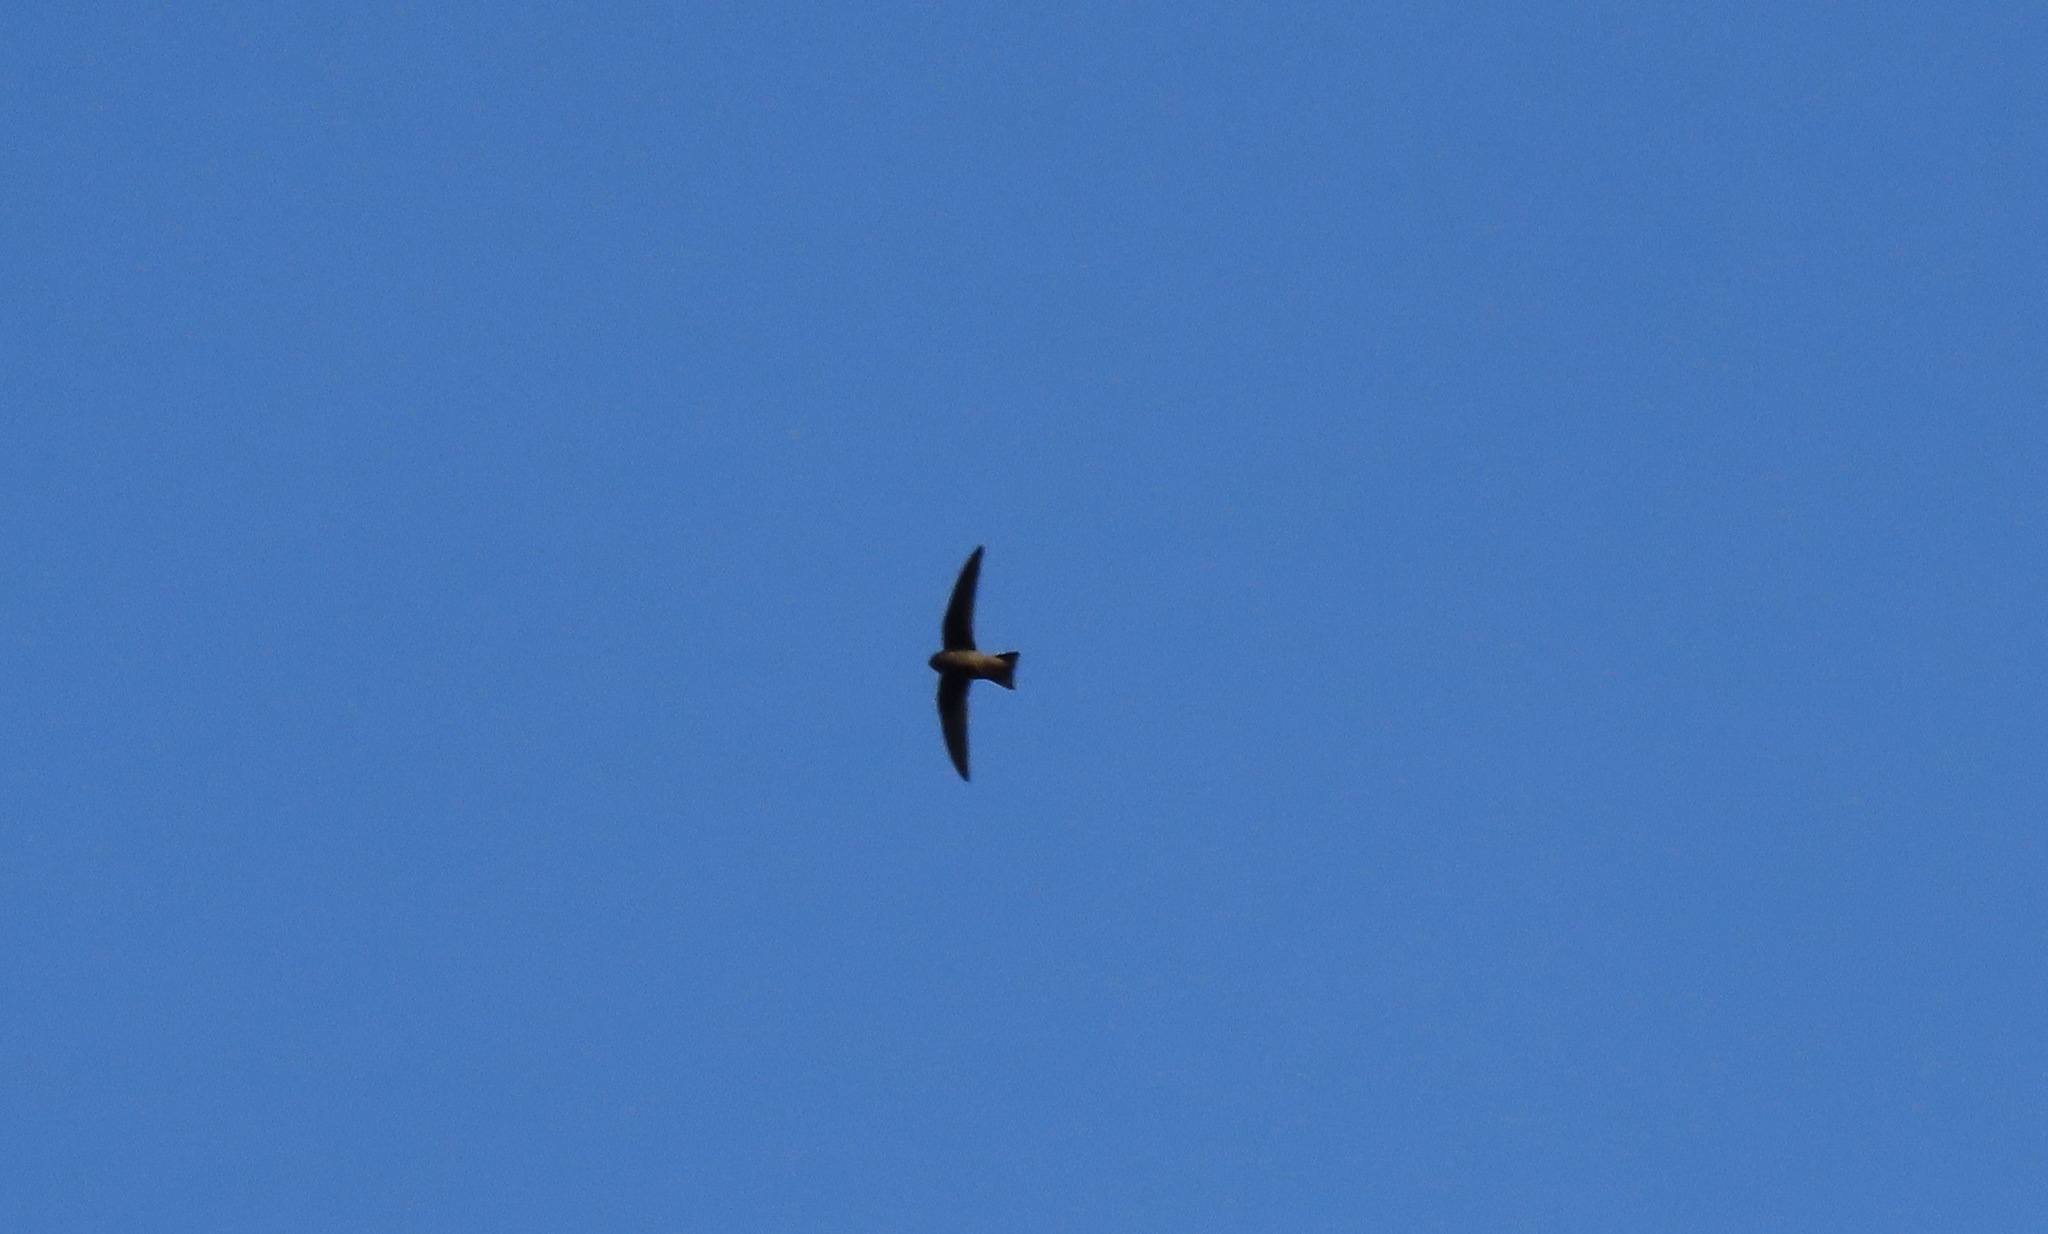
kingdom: Animalia
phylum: Chordata
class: Aves
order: Apodiformes
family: Apodidae
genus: Chaetura
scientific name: Chaetura vauxi
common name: Vaux's swift
